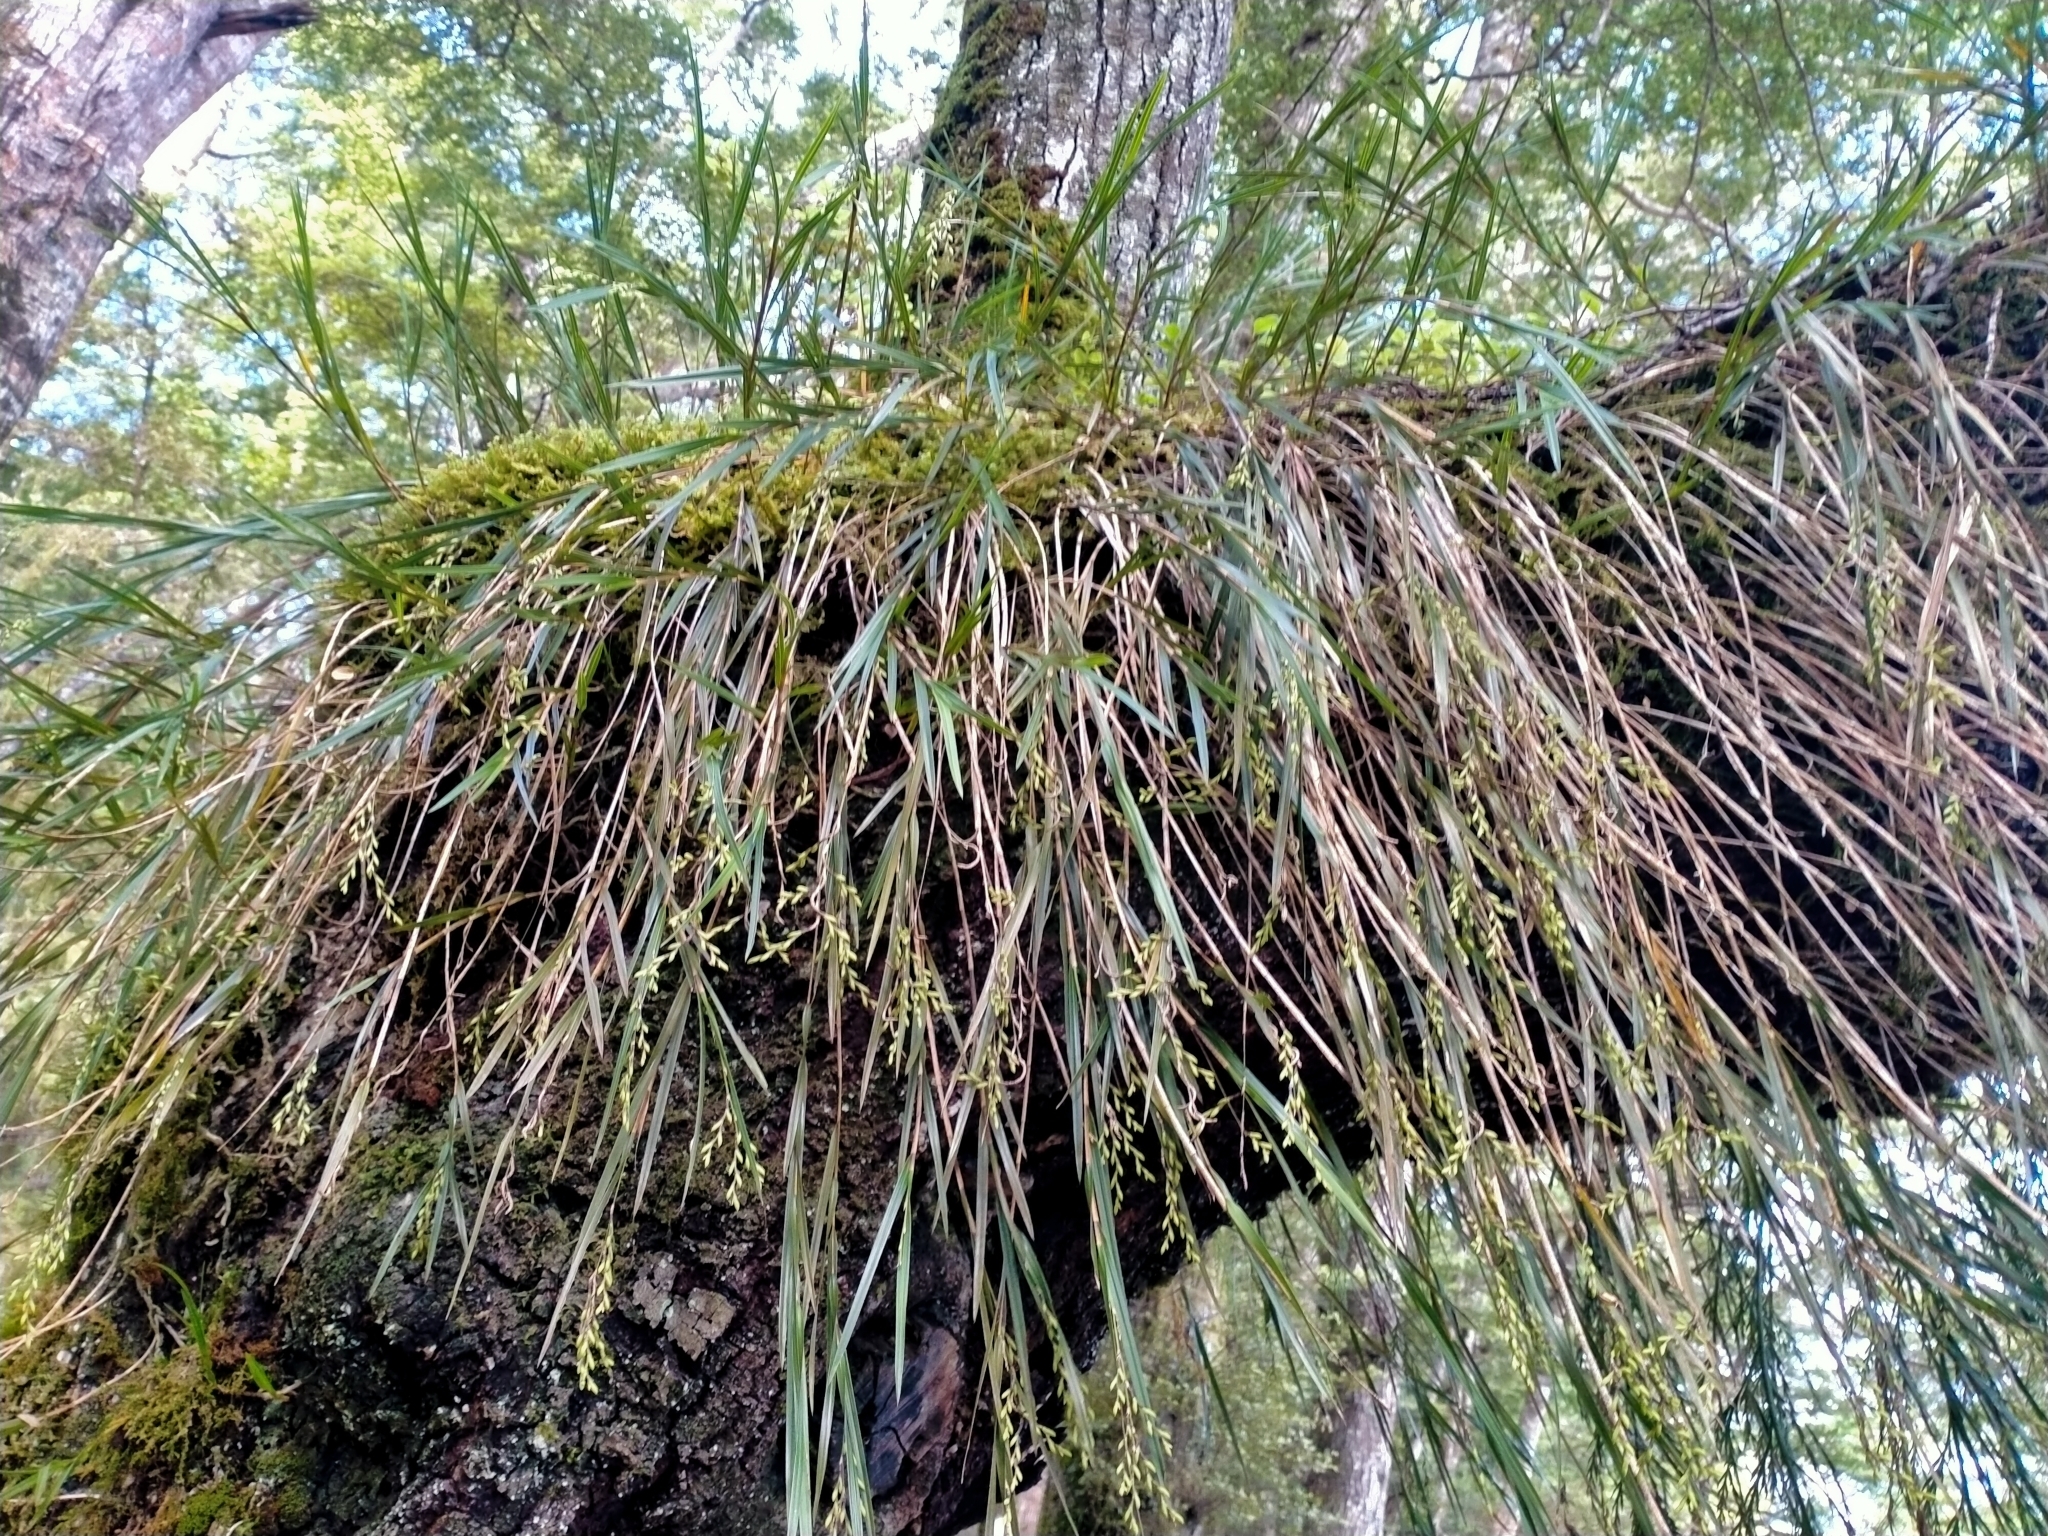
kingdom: Plantae
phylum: Tracheophyta
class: Liliopsida
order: Asparagales
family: Orchidaceae
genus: Earina
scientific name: Earina mucronata
